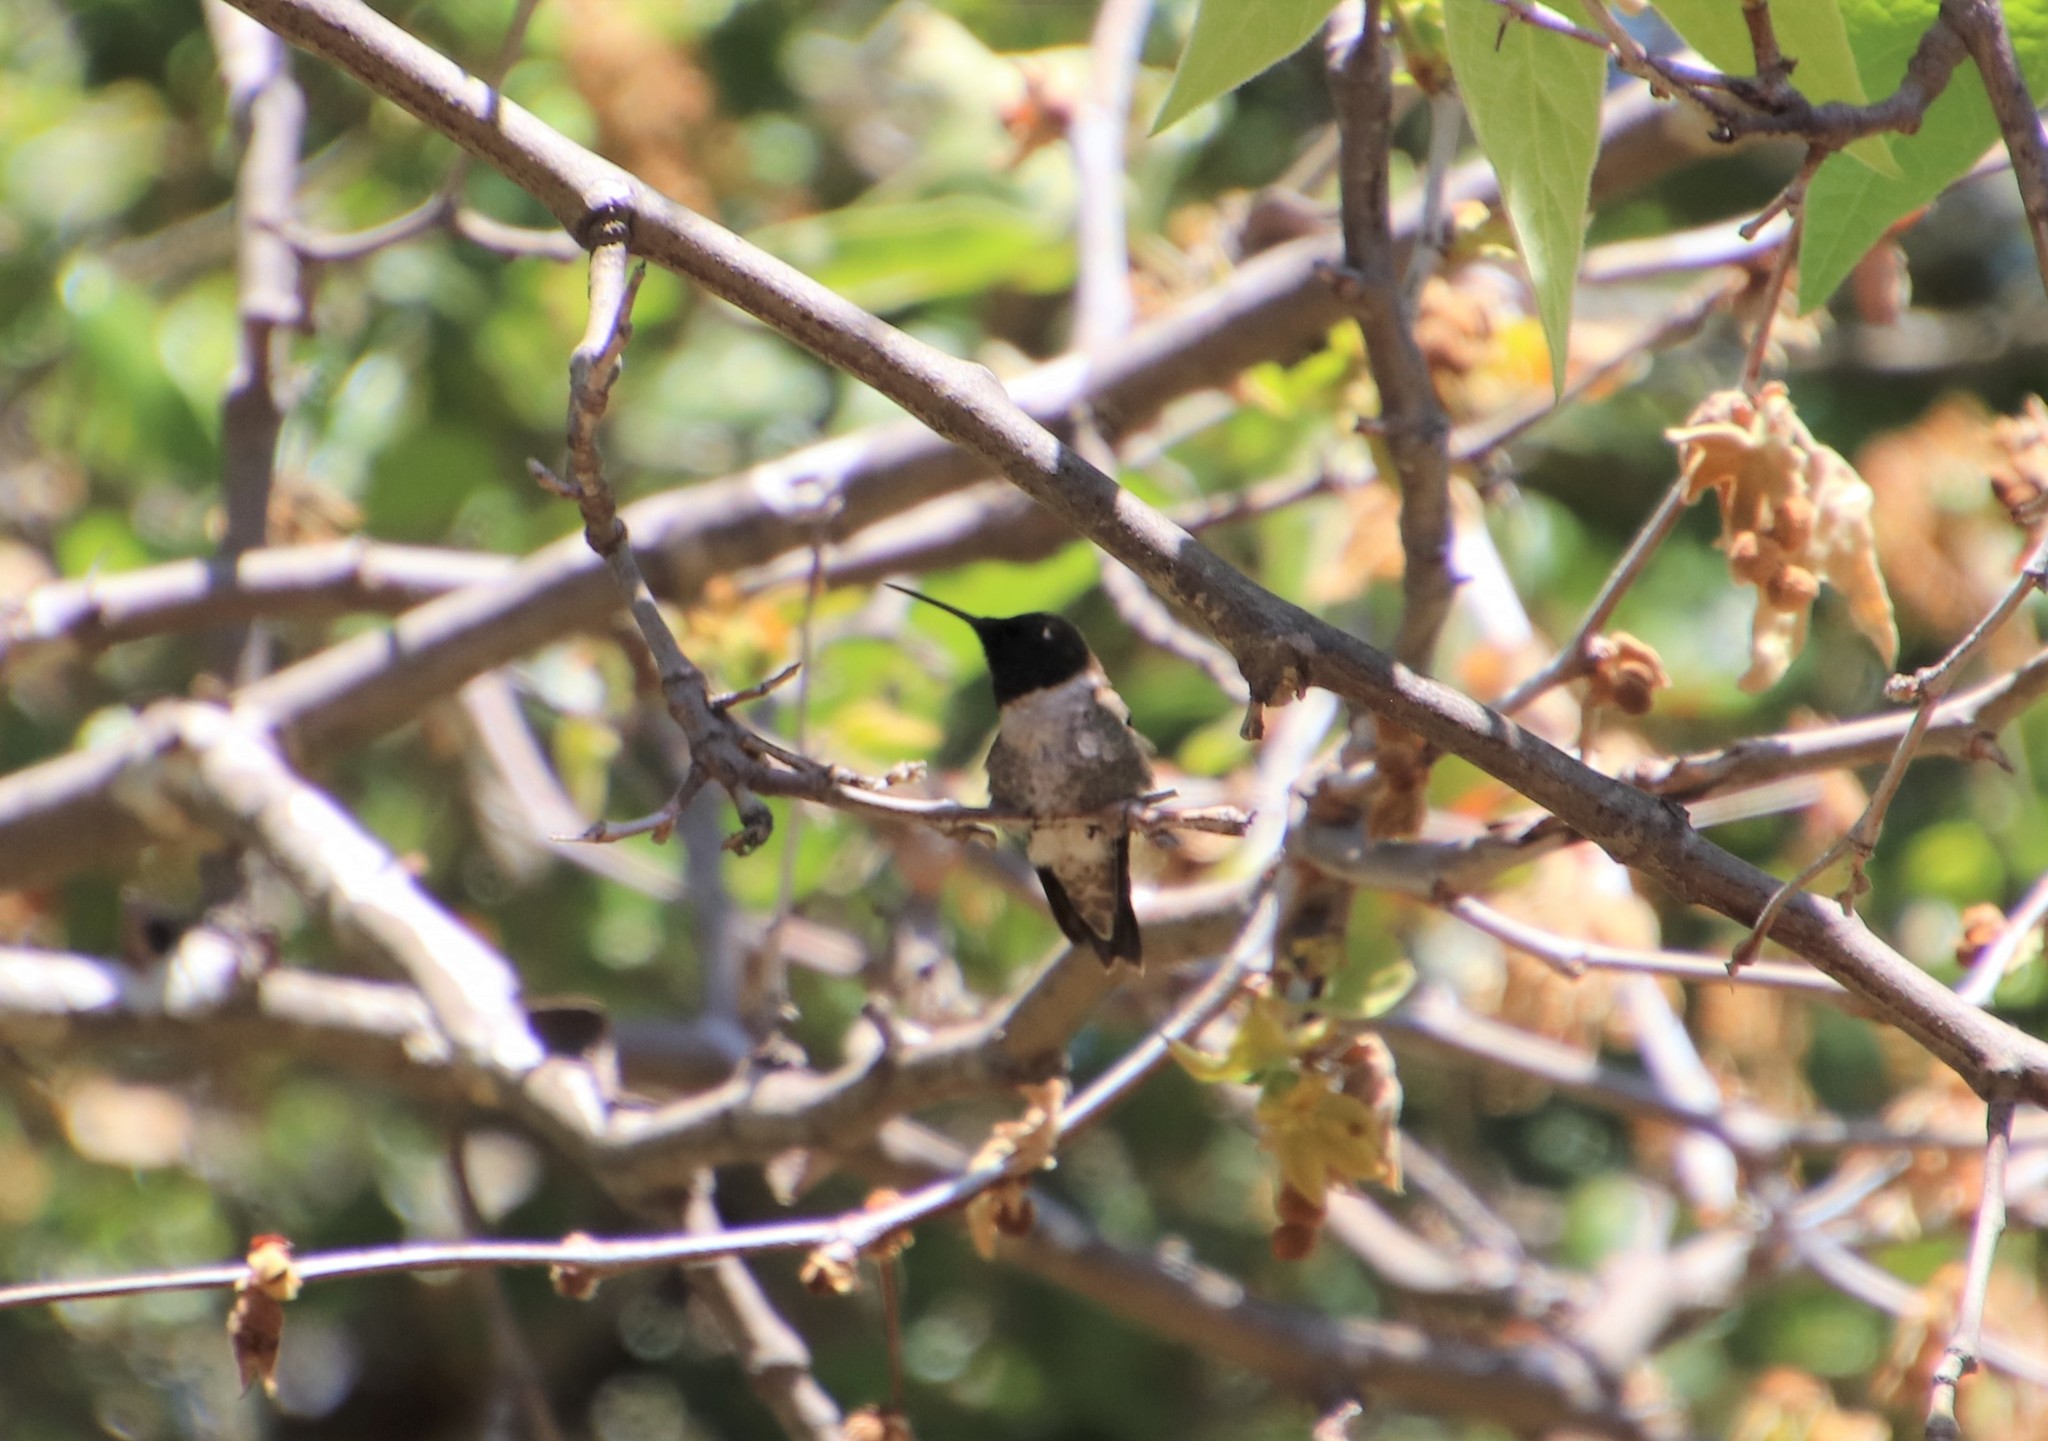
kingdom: Animalia
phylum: Chordata
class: Aves
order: Apodiformes
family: Trochilidae
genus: Archilochus
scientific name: Archilochus alexandri
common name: Black-chinned hummingbird
